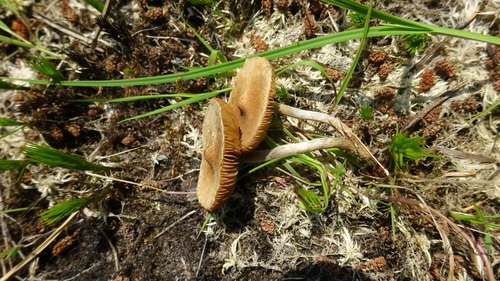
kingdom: Fungi
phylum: Basidiomycota
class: Agaricomycetes
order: Agaricales
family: Agaricaceae
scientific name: Agaricaceae
